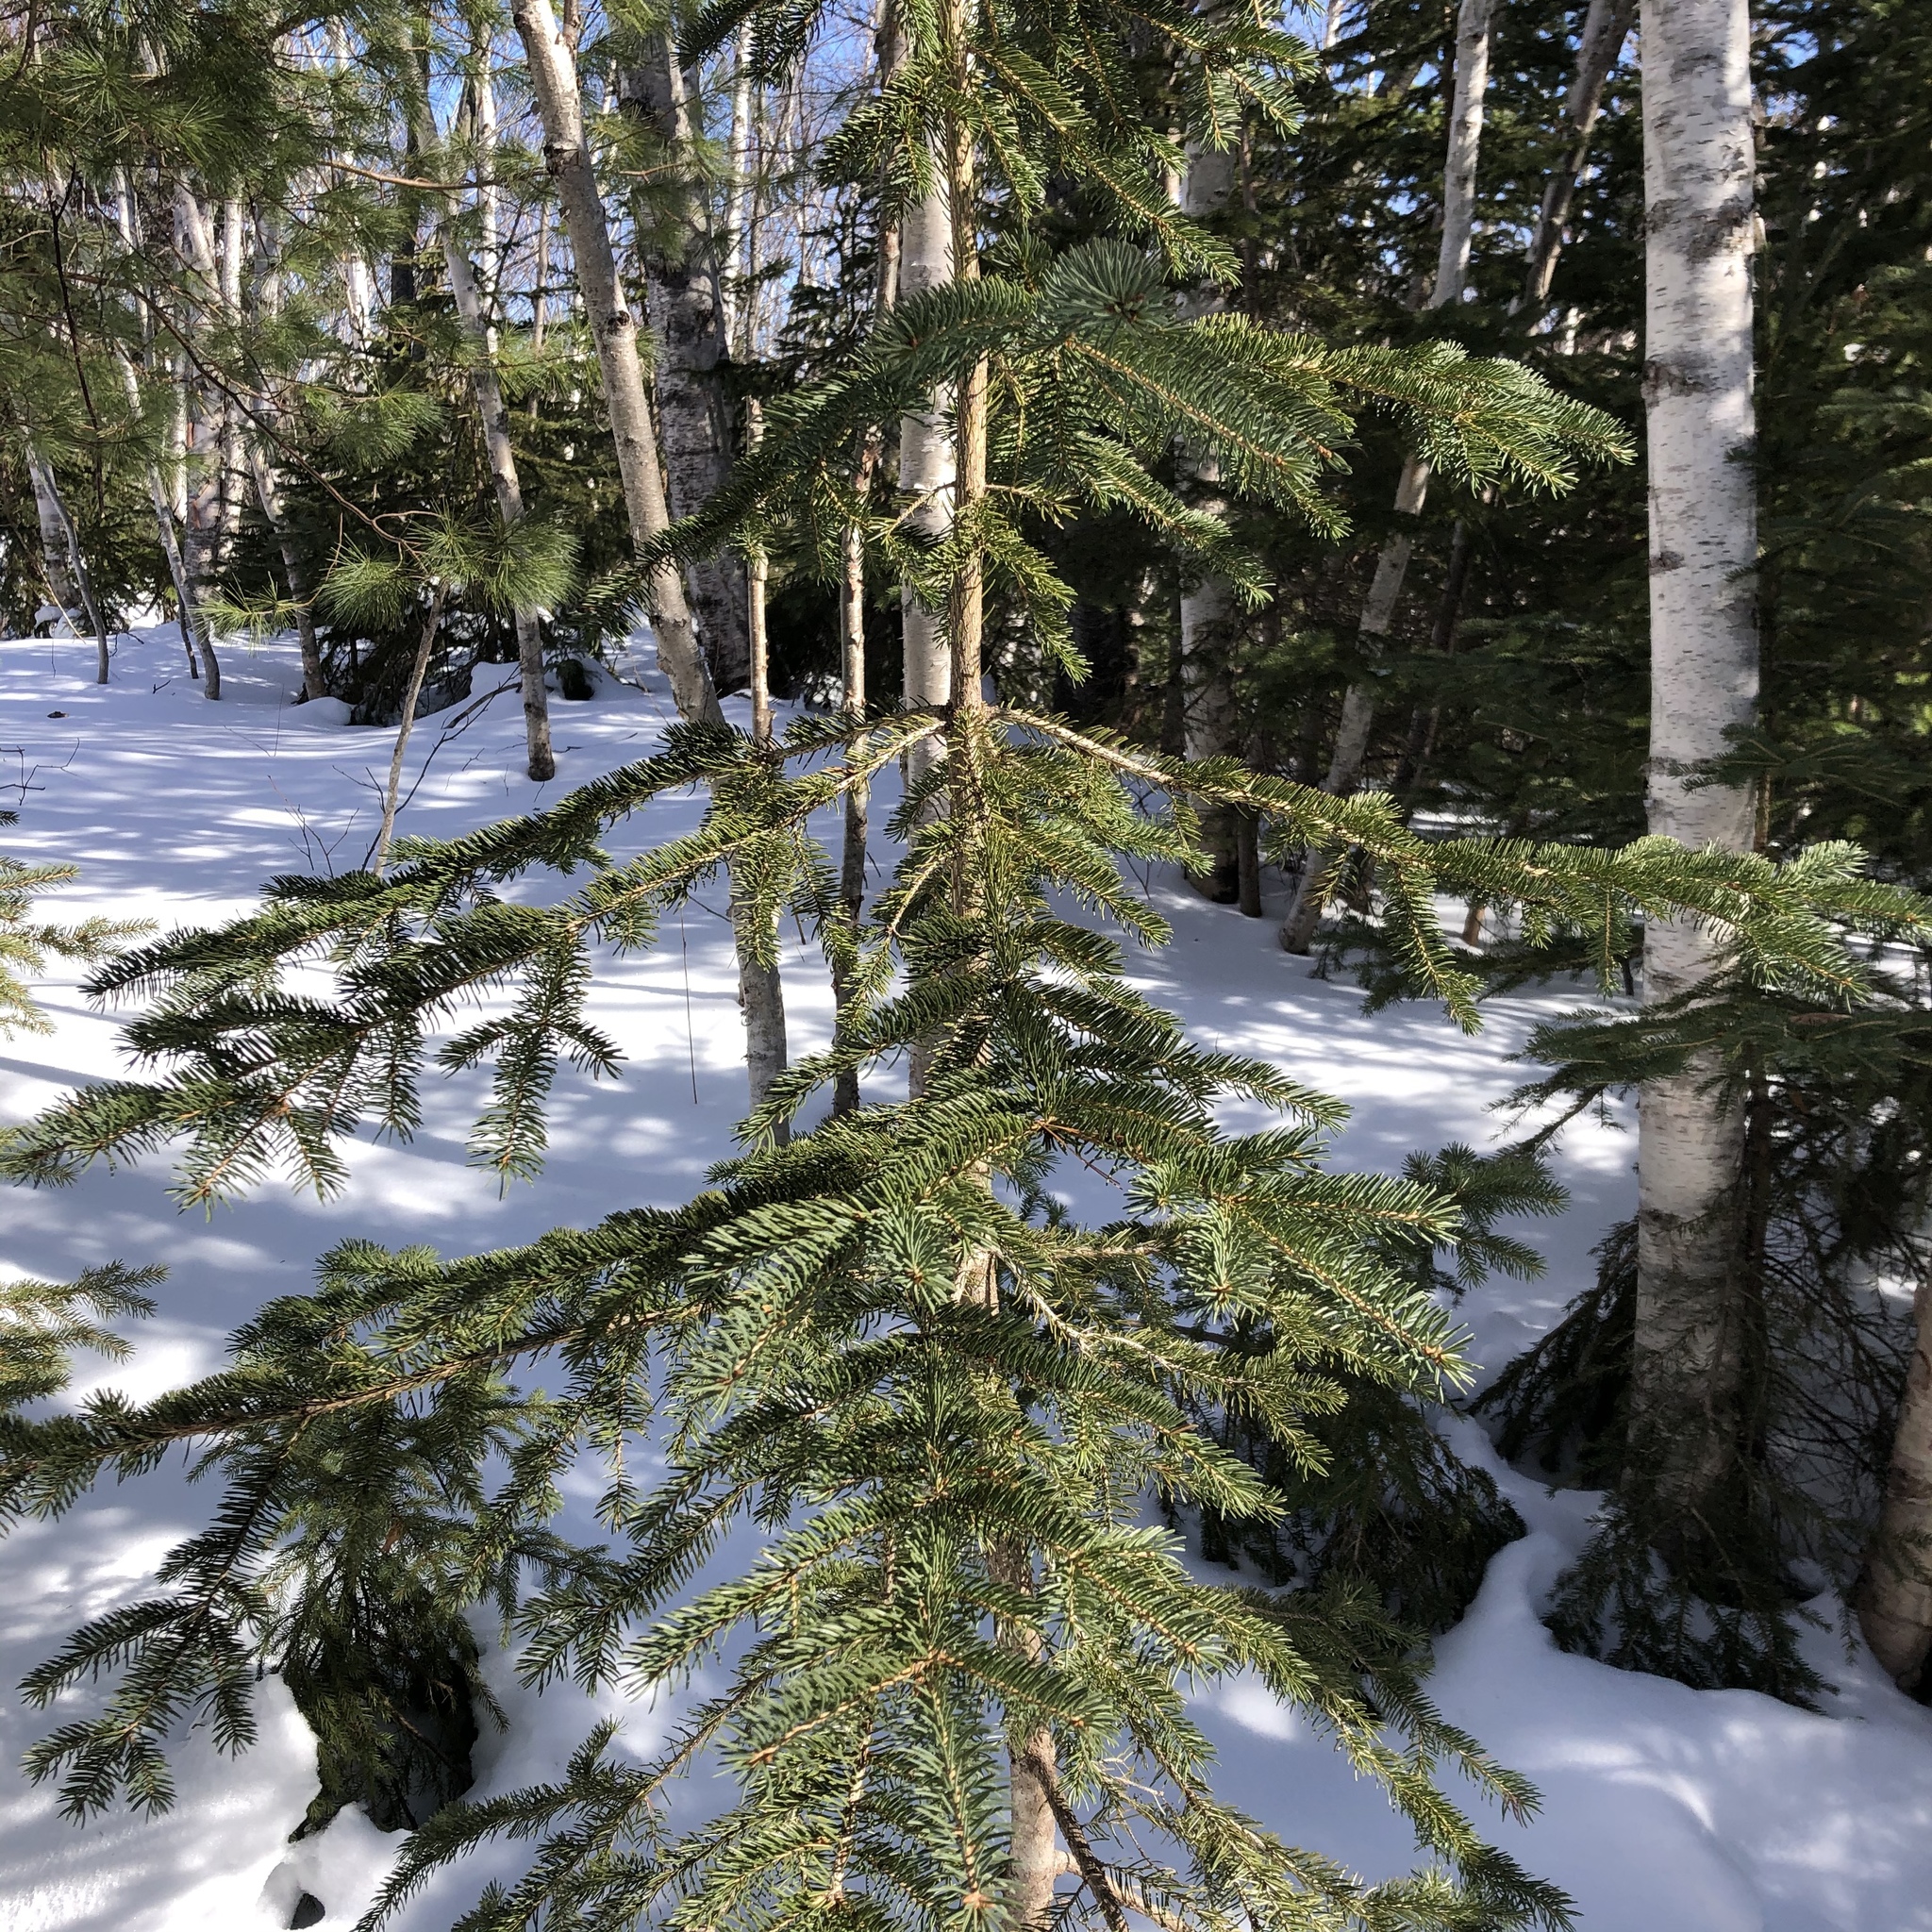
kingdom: Plantae
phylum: Tracheophyta
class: Pinopsida
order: Pinales
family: Pinaceae
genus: Picea
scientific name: Picea glauca
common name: White spruce
